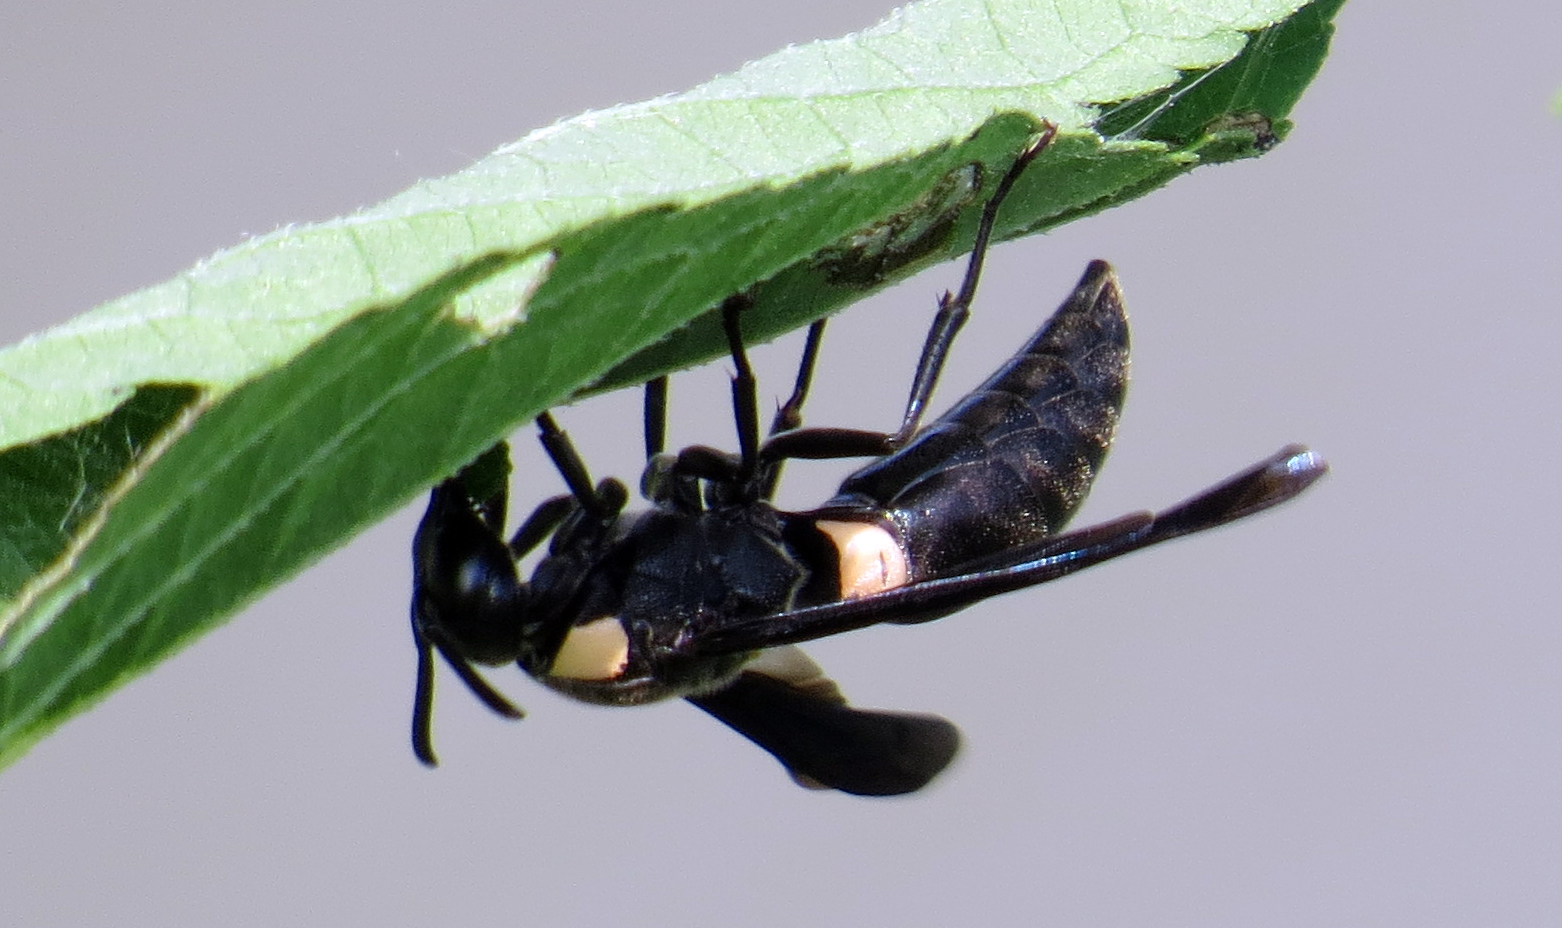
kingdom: Animalia
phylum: Arthropoda
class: Insecta
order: Hymenoptera
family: Eumenidae
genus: Monobia
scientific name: Monobia quadridens
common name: Four-toothed mason wasp
